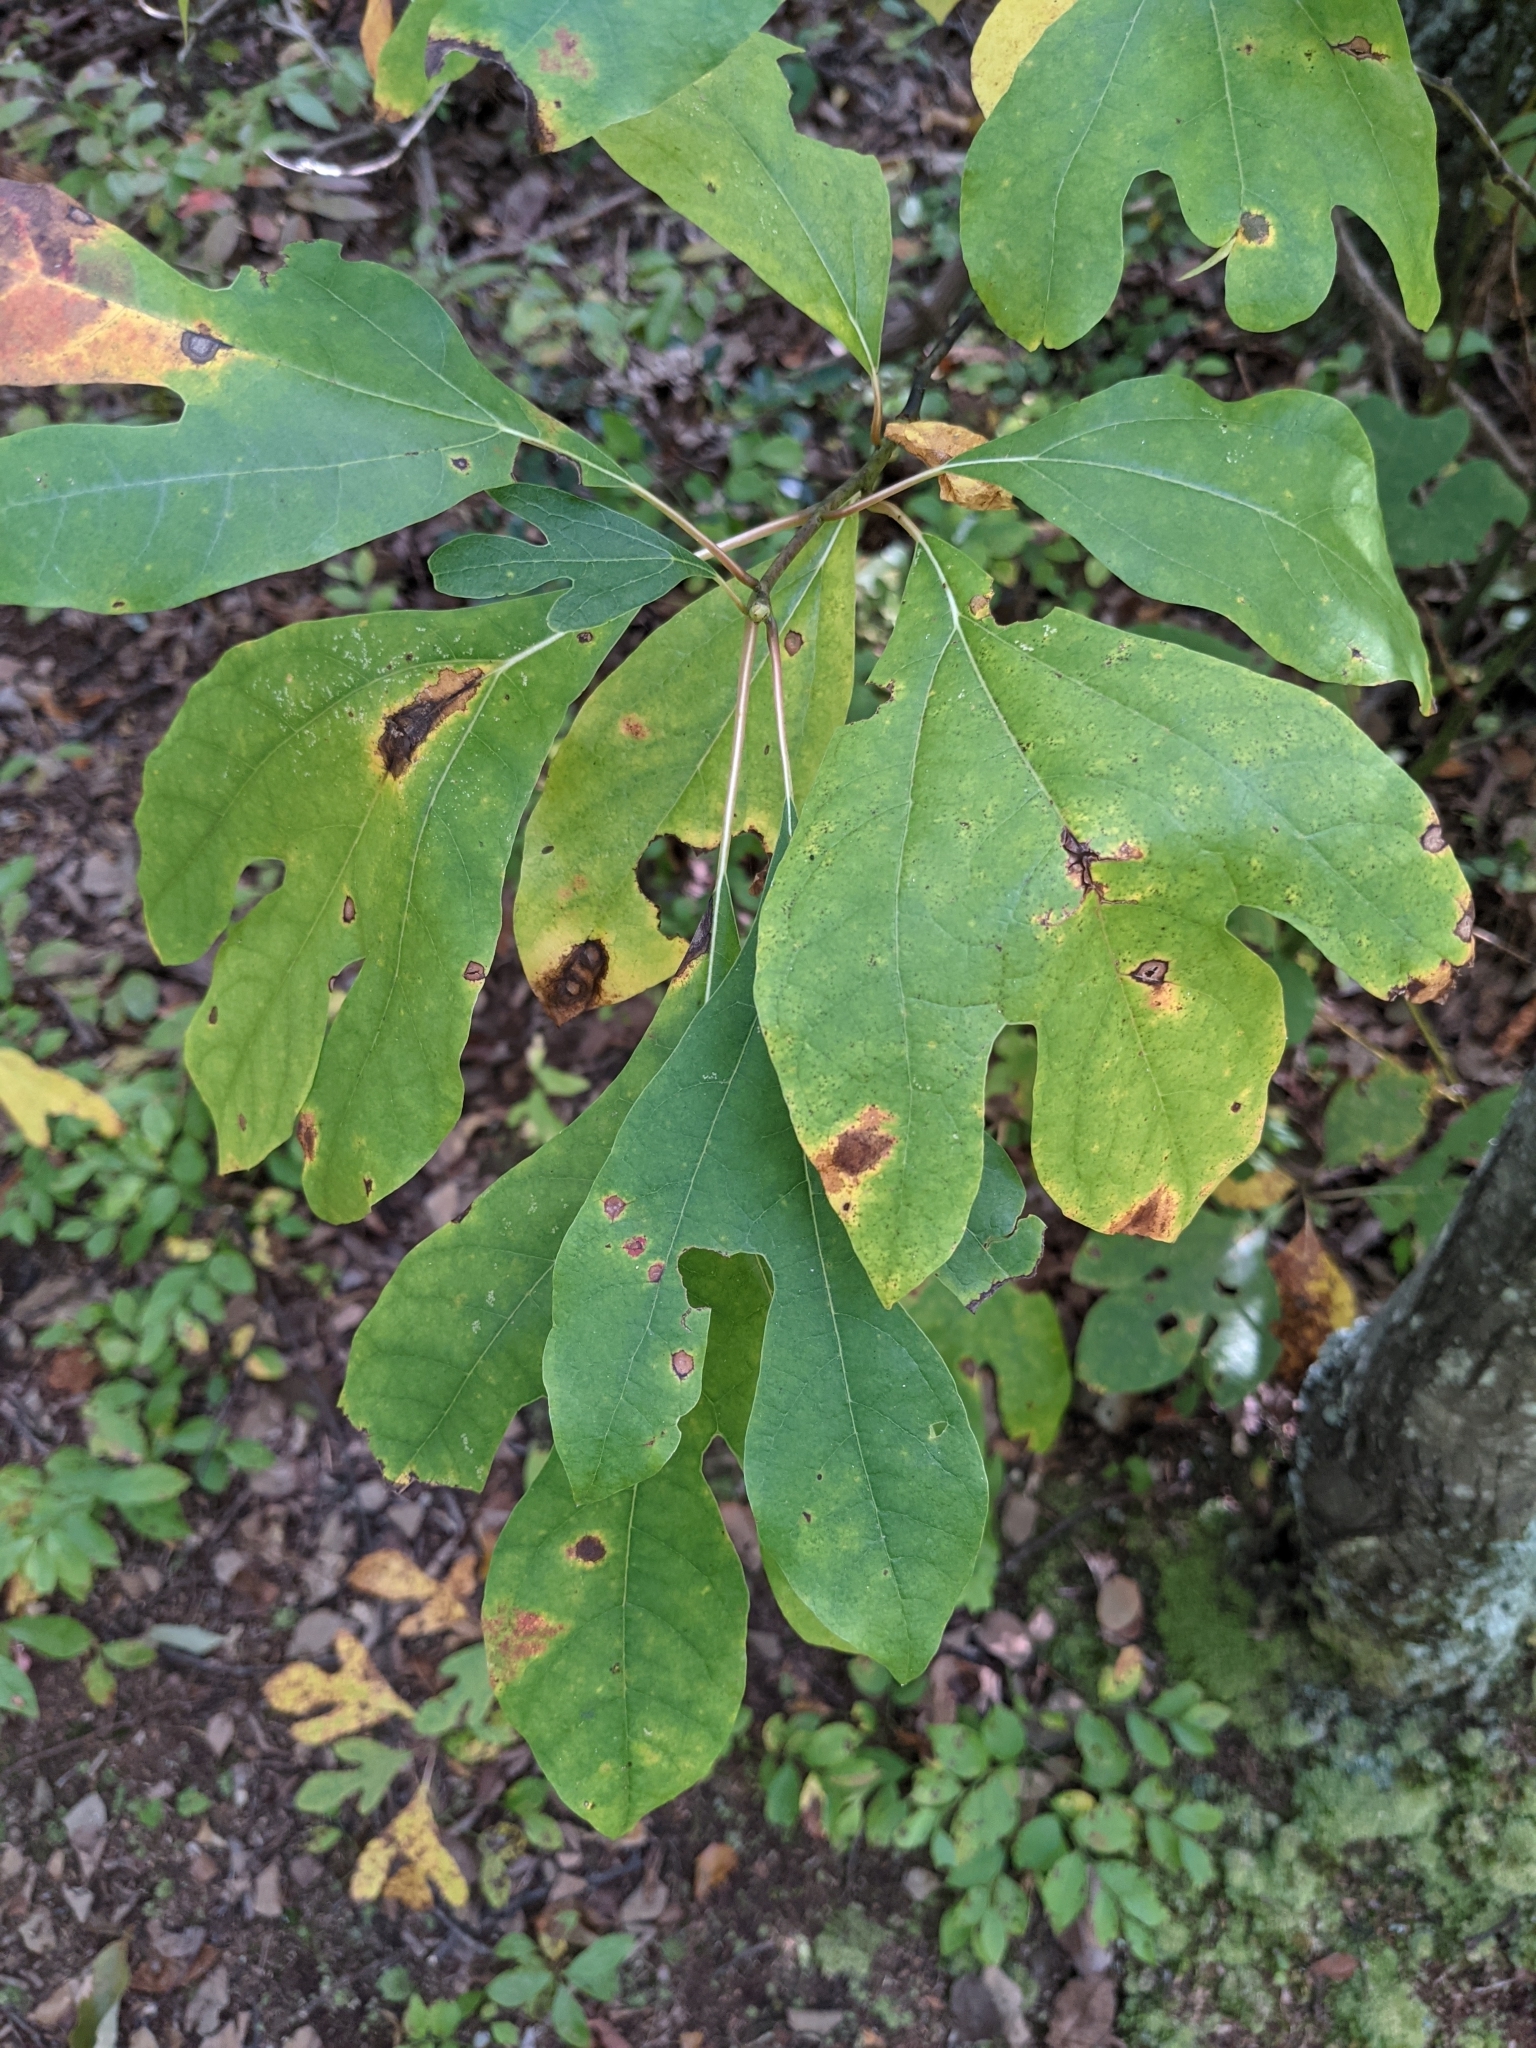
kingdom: Plantae
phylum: Tracheophyta
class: Magnoliopsida
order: Laurales
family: Lauraceae
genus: Sassafras
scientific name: Sassafras albidum
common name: Sassafras
